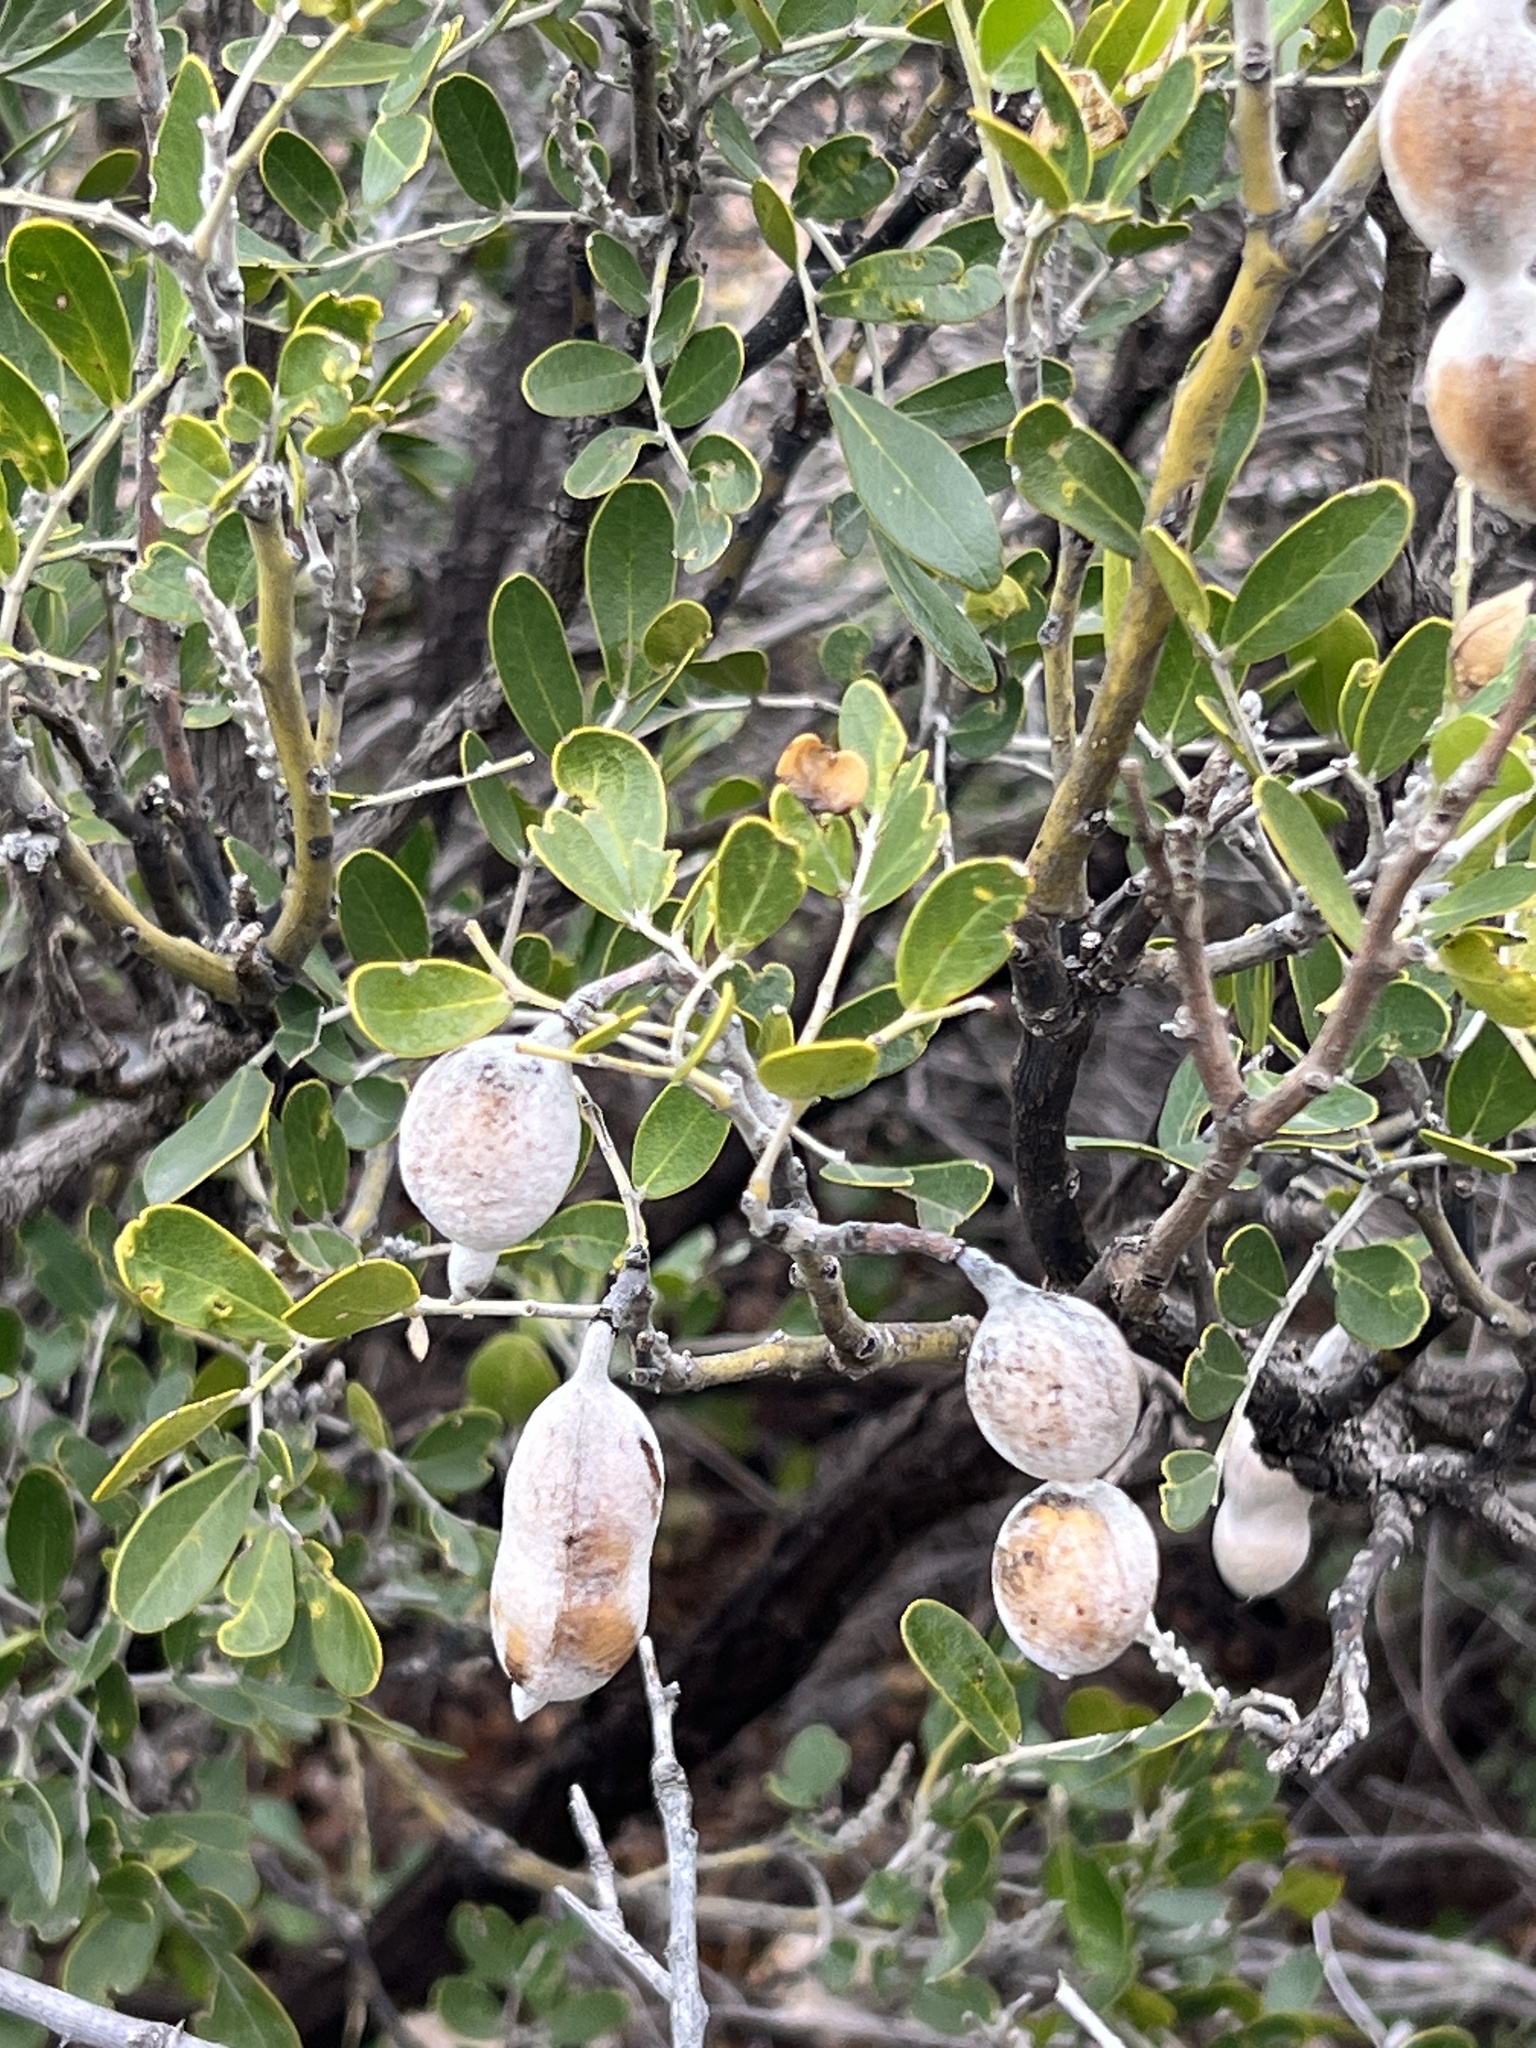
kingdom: Plantae
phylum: Tracheophyta
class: Magnoliopsida
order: Fabales
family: Fabaceae
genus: Dermatophyllum
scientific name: Dermatophyllum secundiflorum
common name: Texas-mountain-laurel
